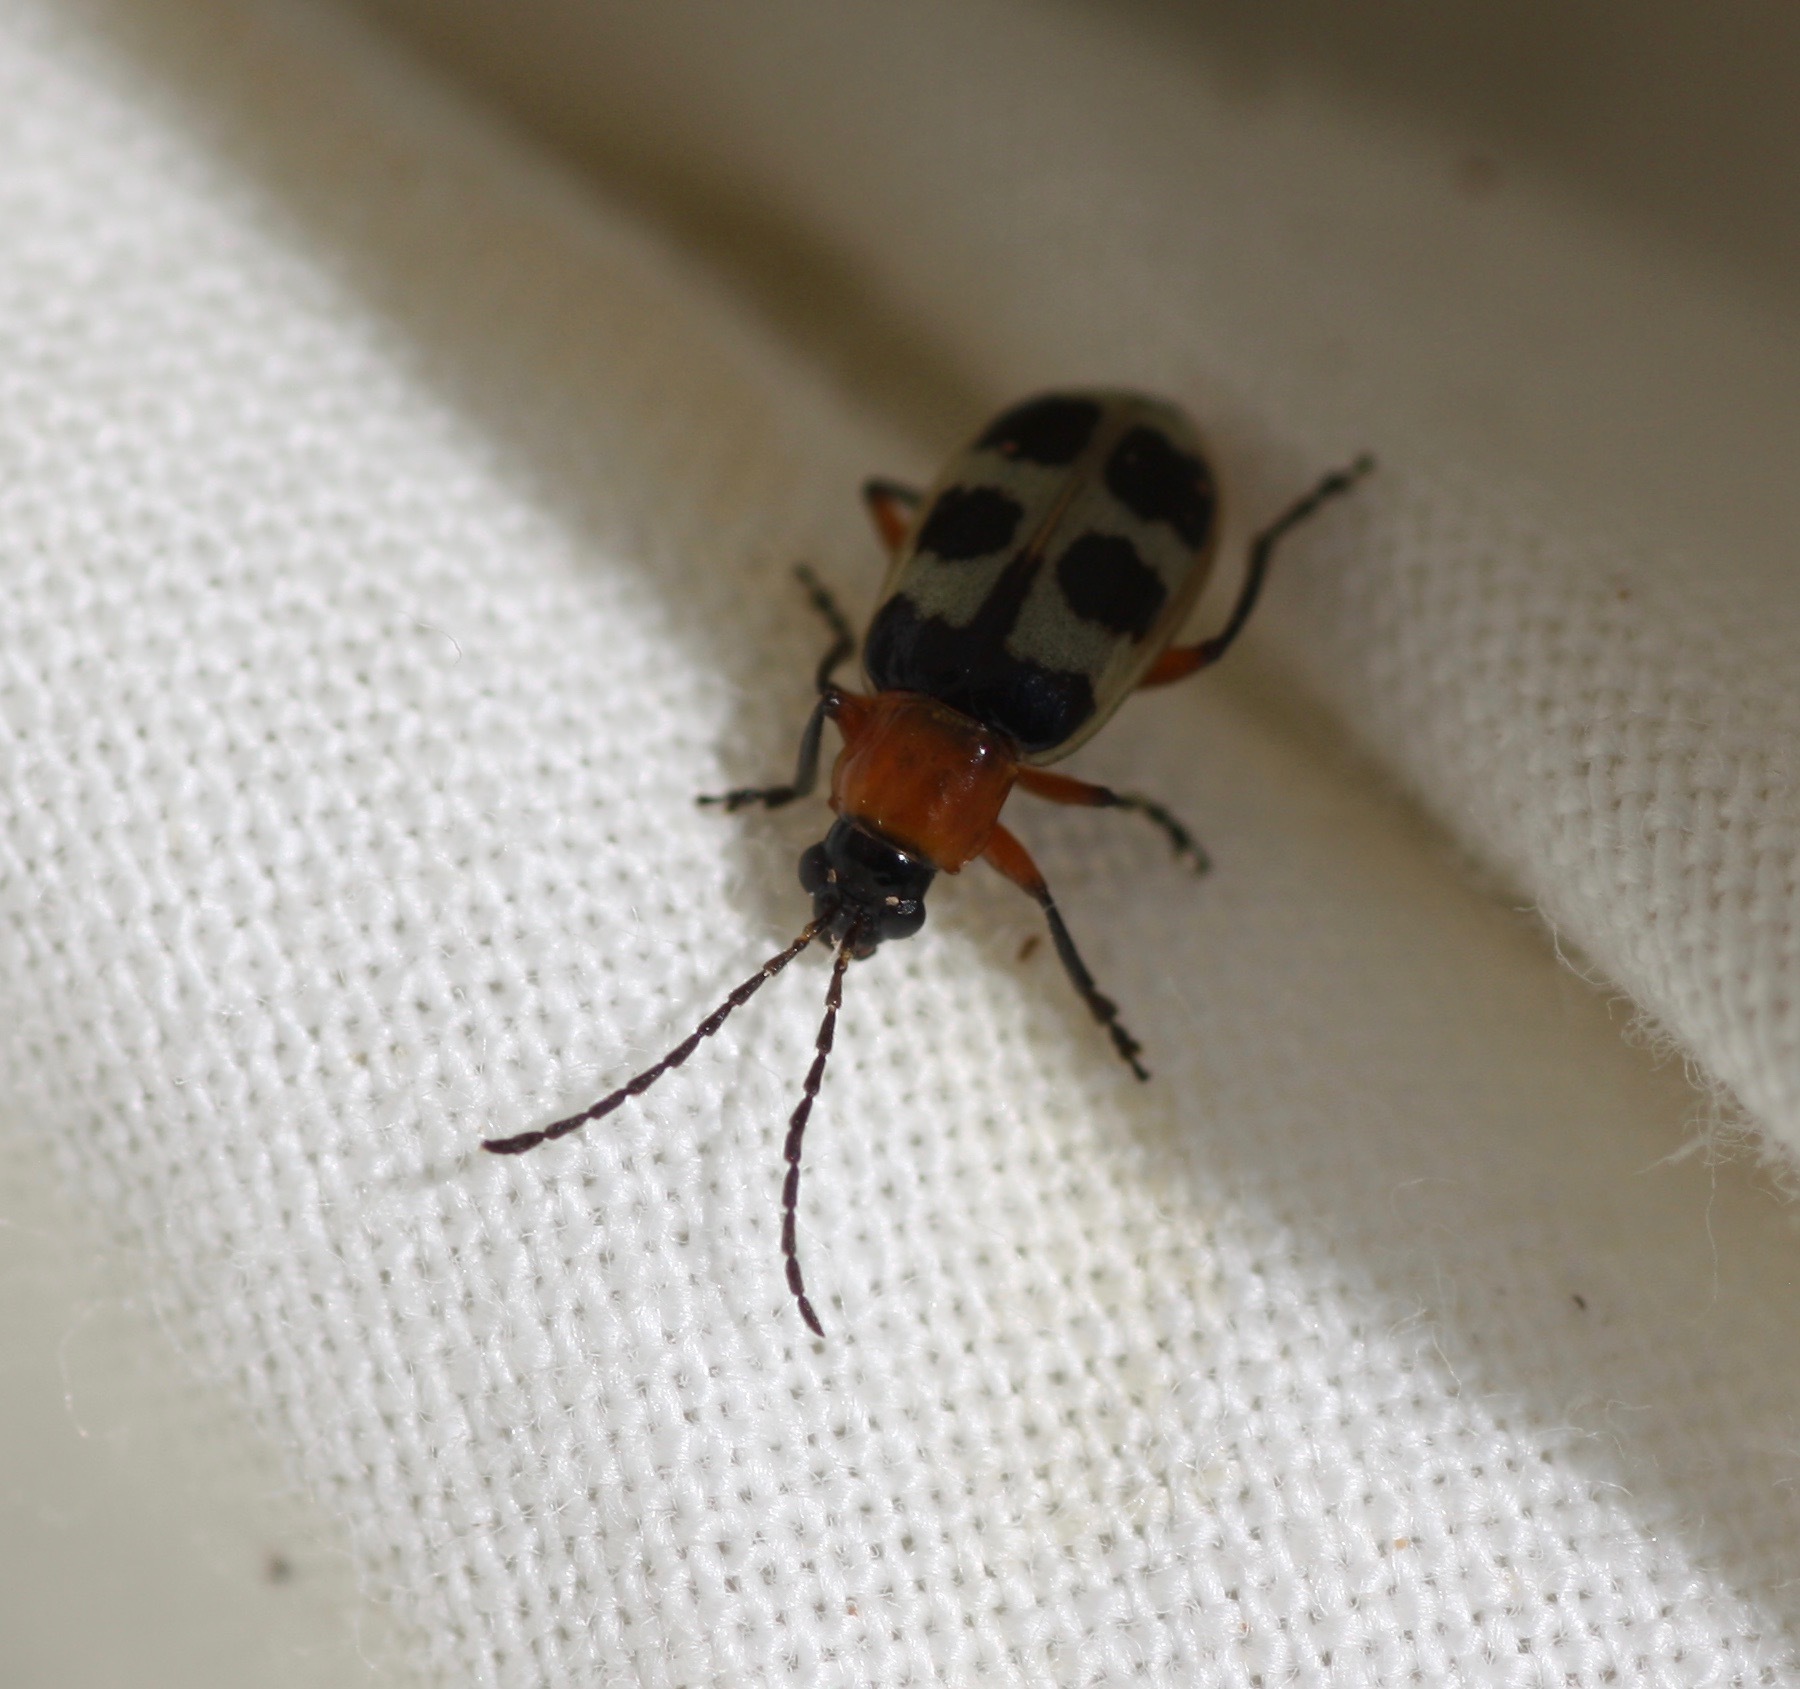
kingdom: Animalia
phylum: Arthropoda
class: Insecta
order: Coleoptera
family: Chrysomelidae
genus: Paranapiacaba
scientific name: Paranapiacaba tricincta
